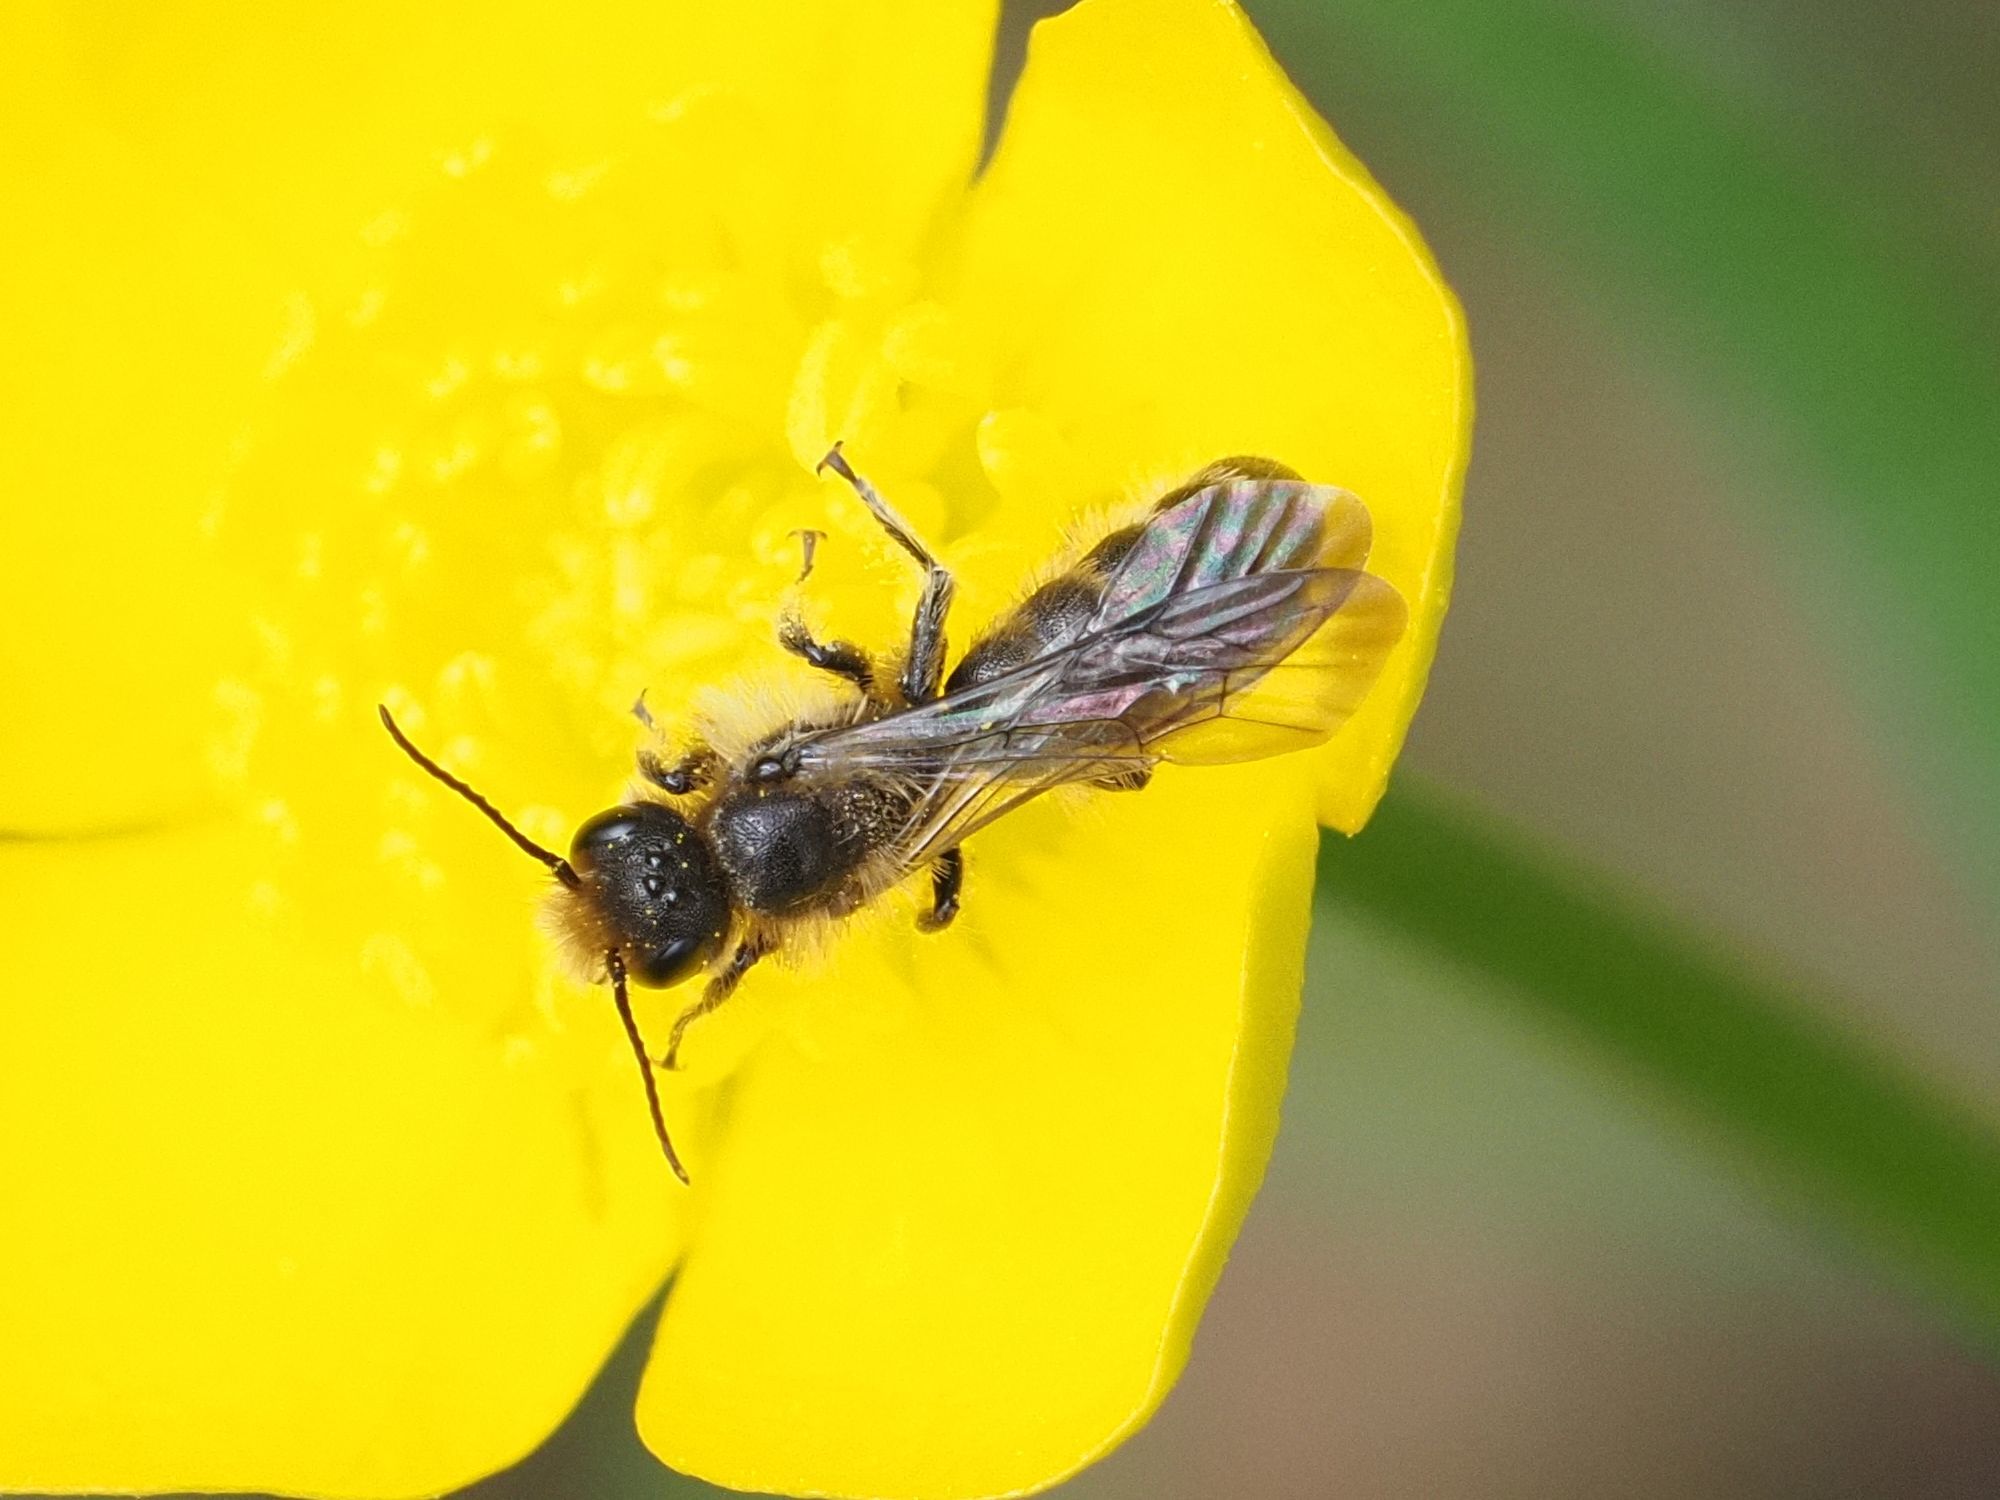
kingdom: Animalia
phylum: Arthropoda
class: Insecta
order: Hymenoptera
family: Megachilidae
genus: Chelostoma
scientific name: Chelostoma florisomne
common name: Sleepy carpenter bee
